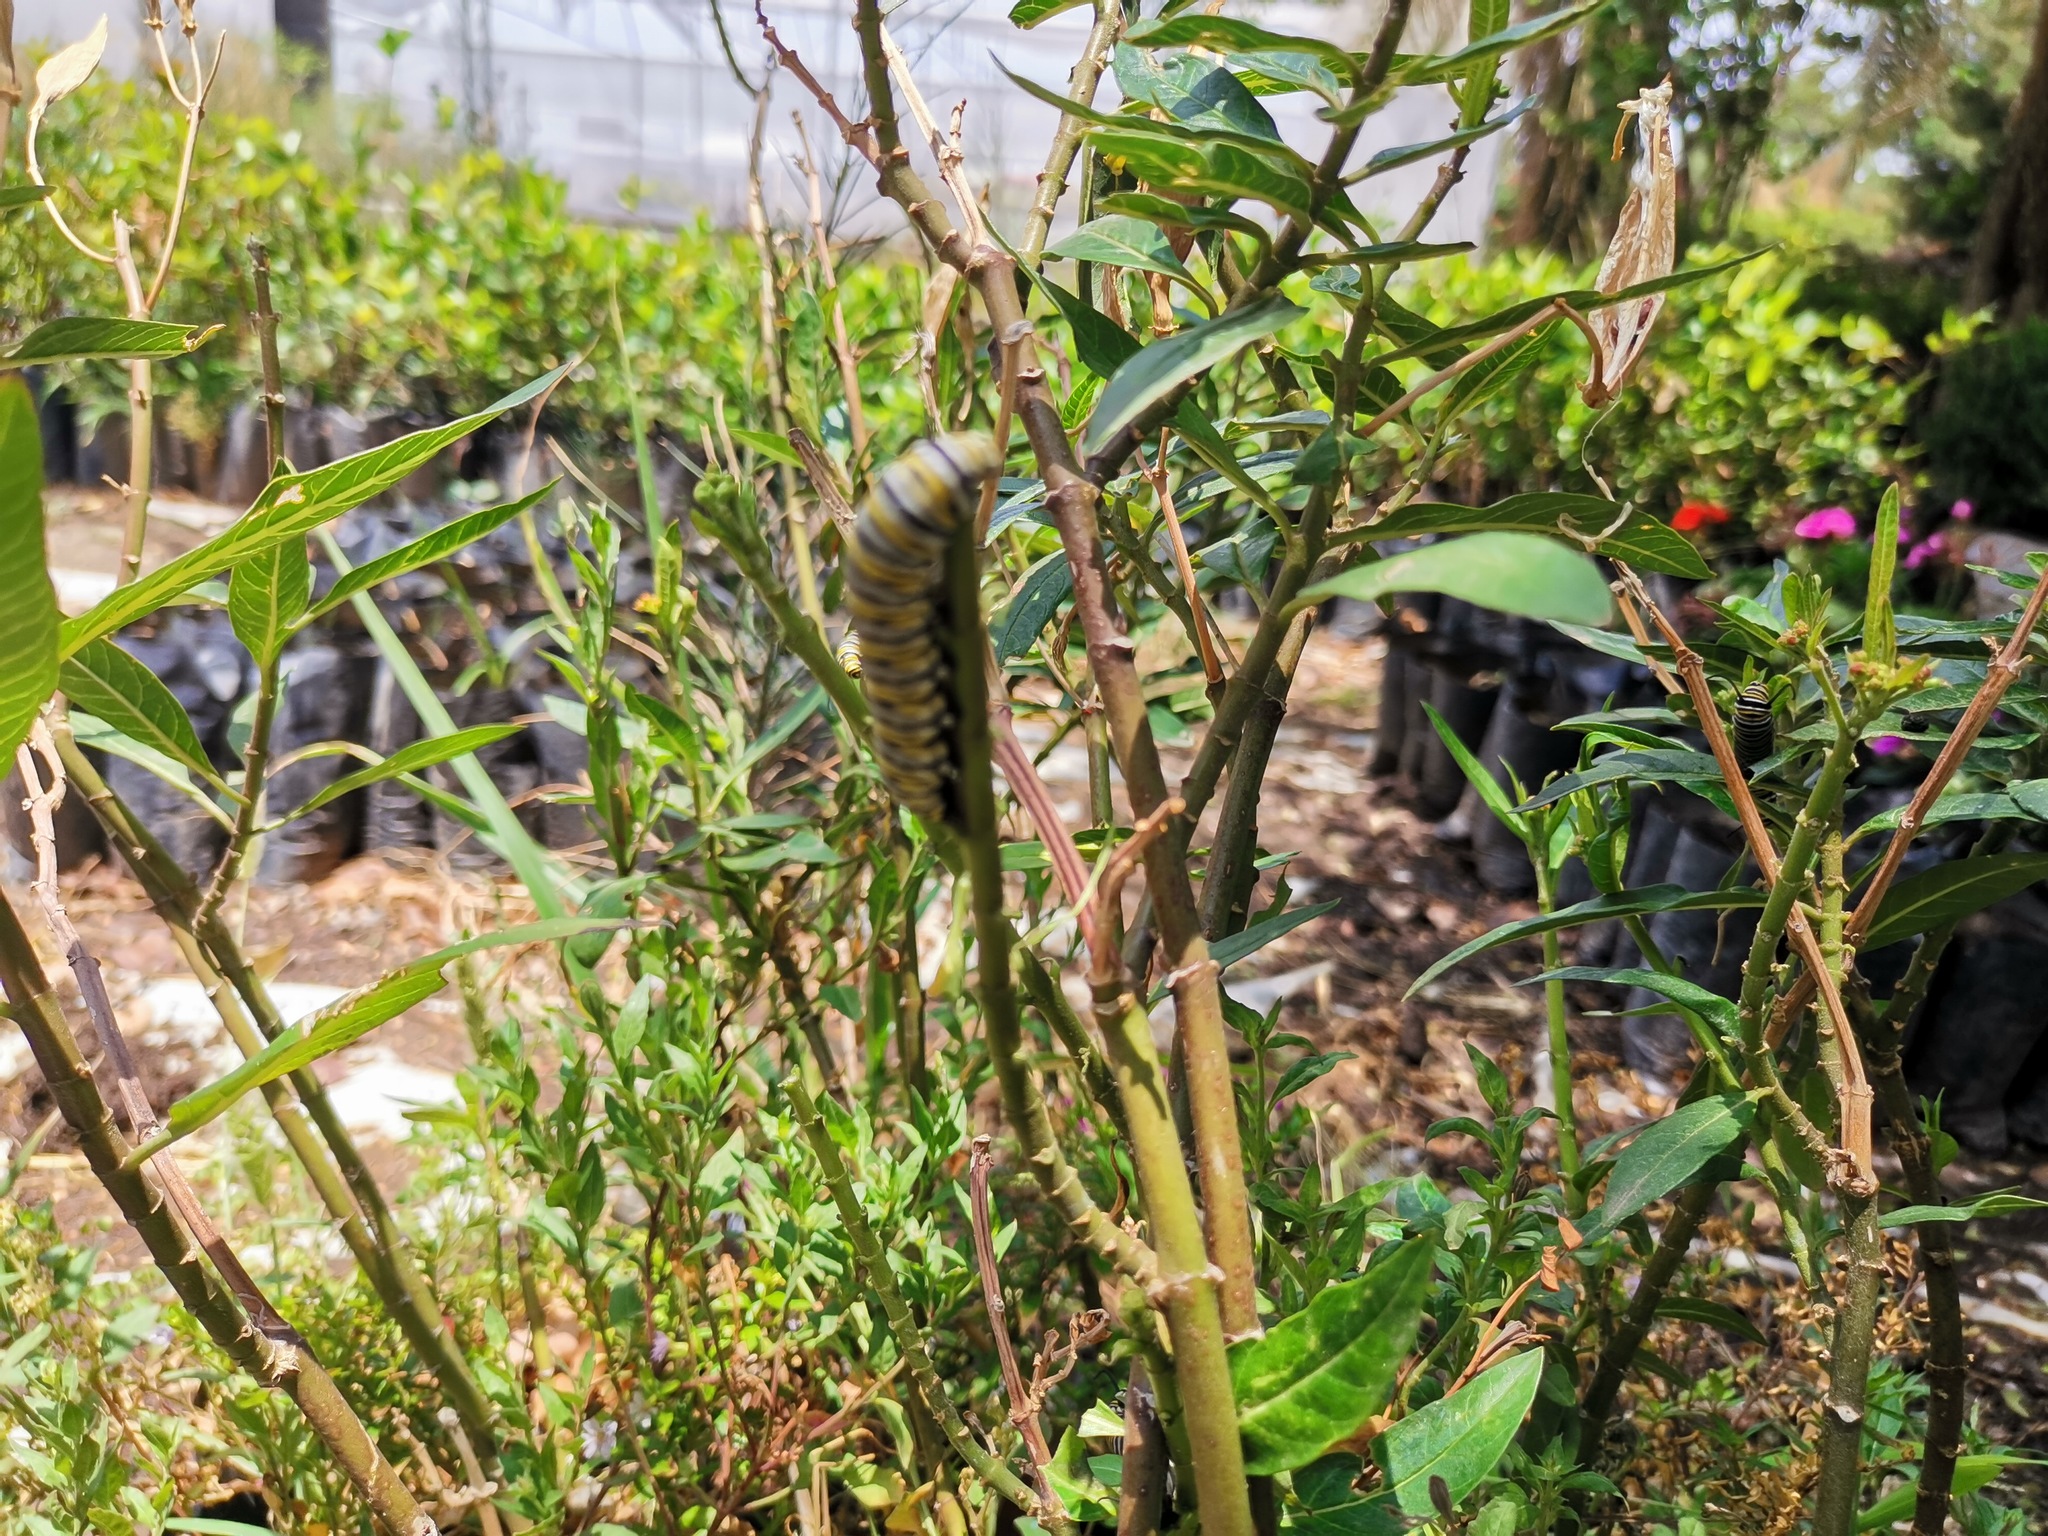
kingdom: Animalia
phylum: Arthropoda
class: Insecta
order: Lepidoptera
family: Nymphalidae
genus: Danaus
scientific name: Danaus plexippus
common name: Monarch
